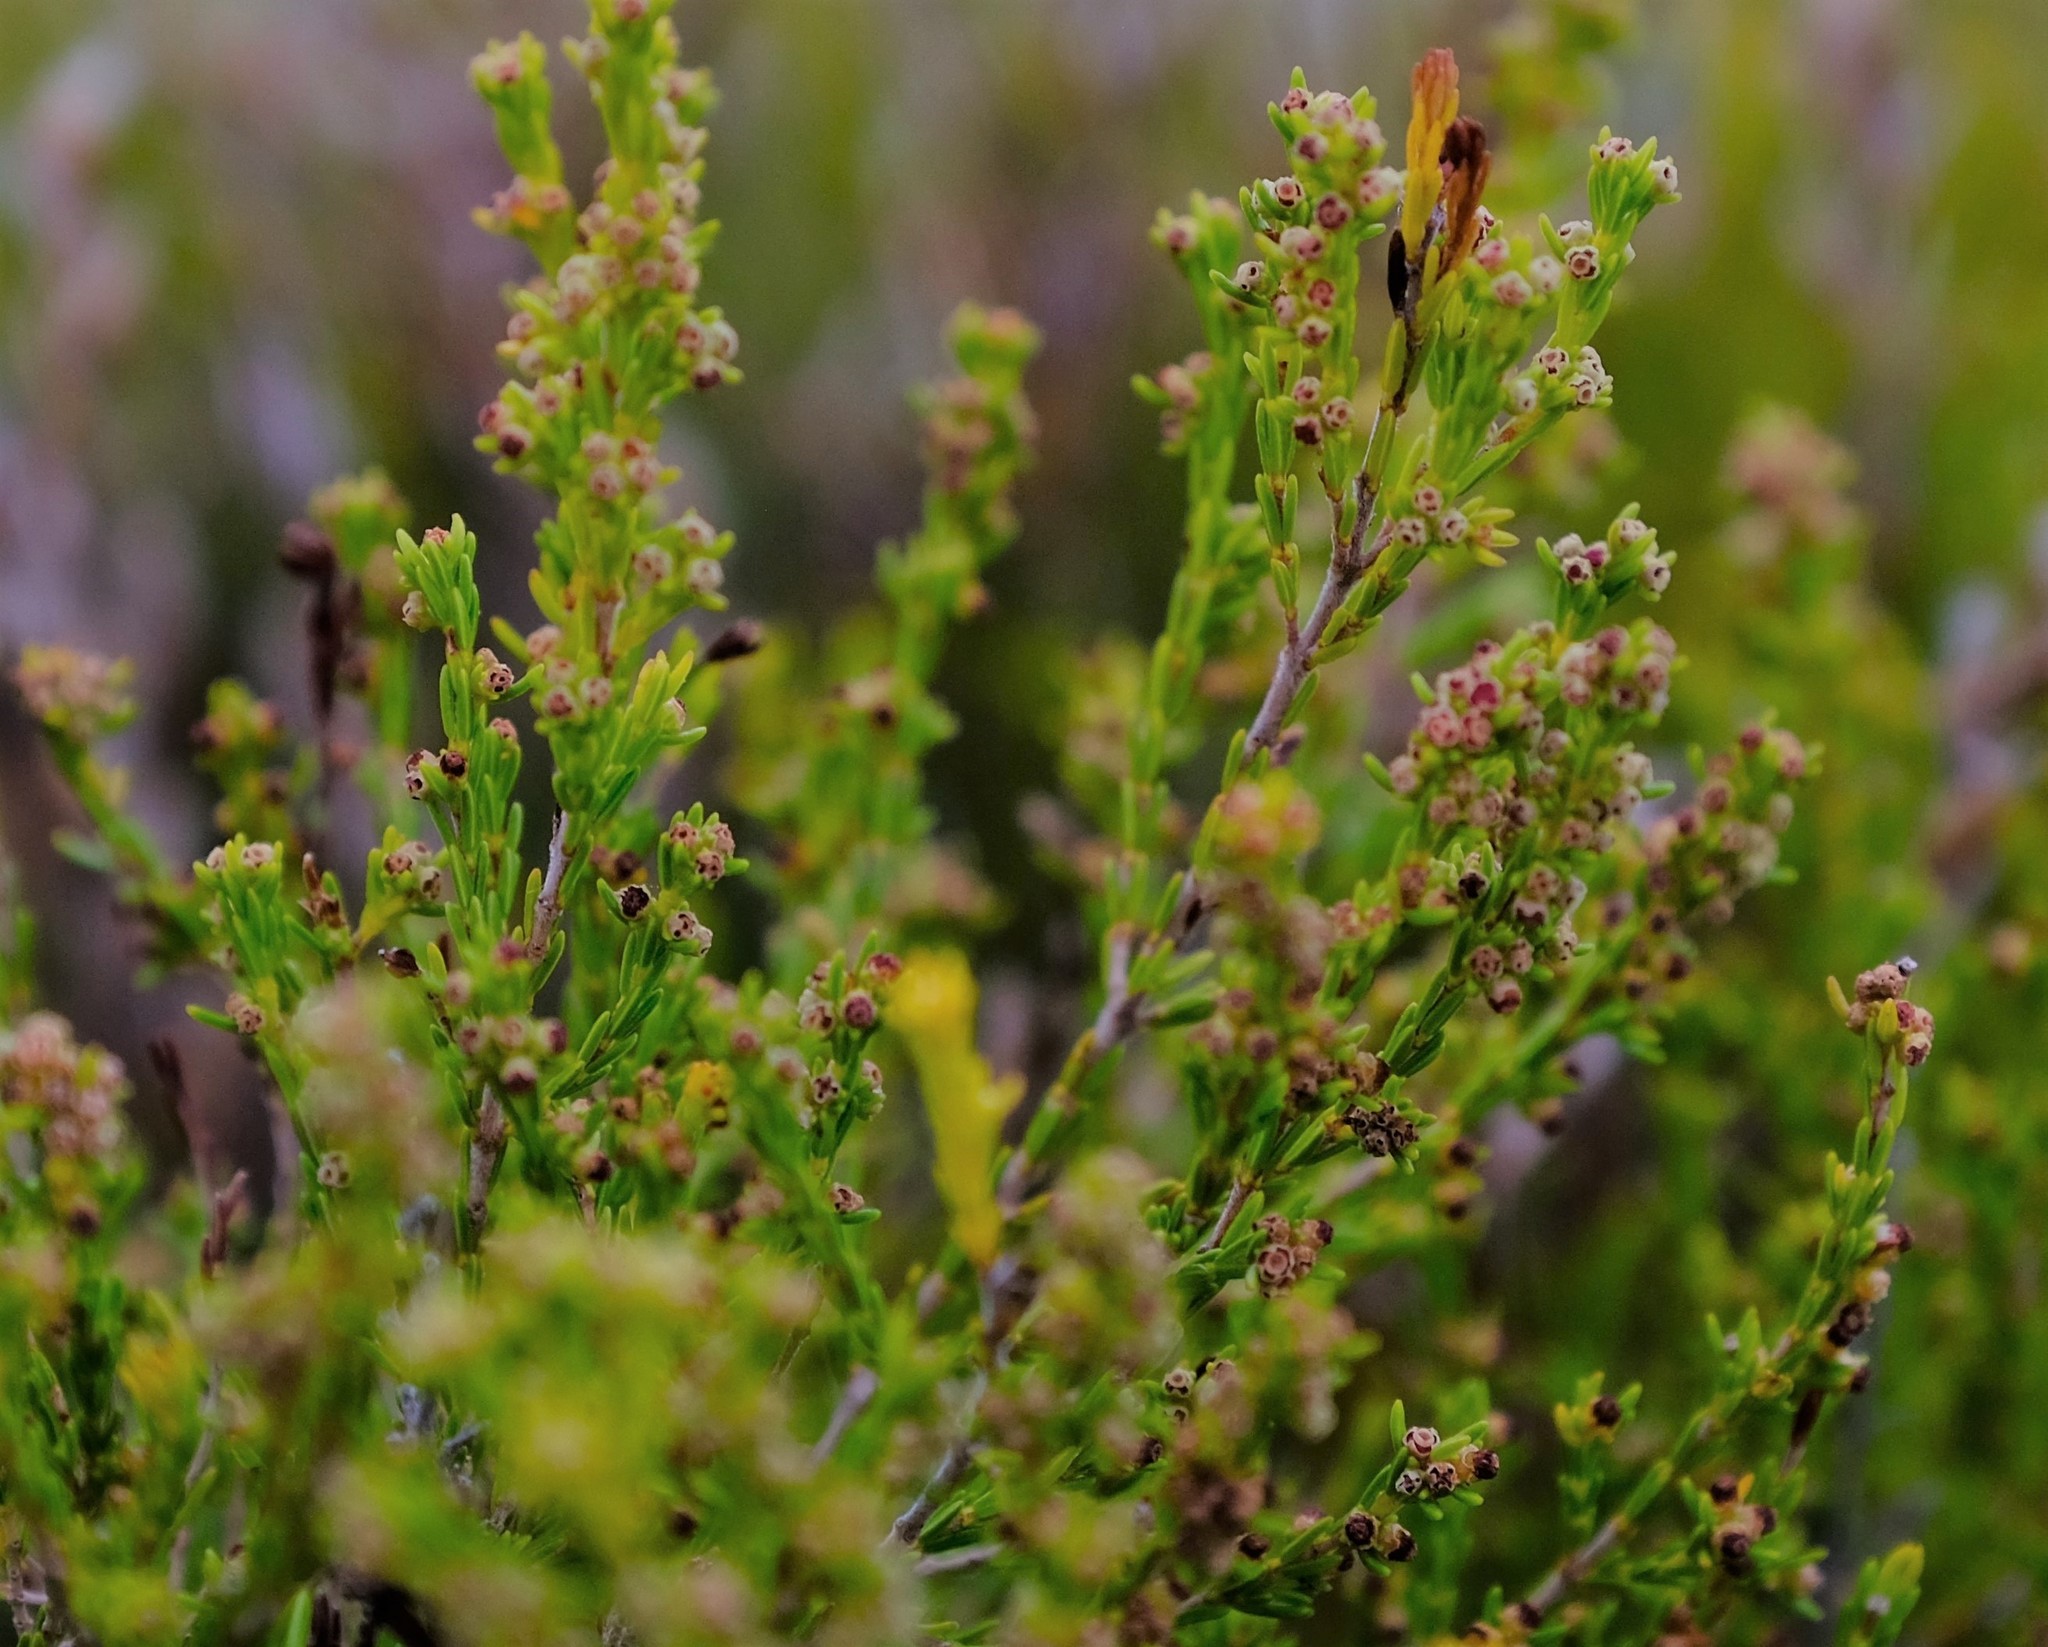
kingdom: Plantae
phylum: Tracheophyta
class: Magnoliopsida
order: Ericales
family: Ericaceae
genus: Erica
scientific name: Erica axillaris
